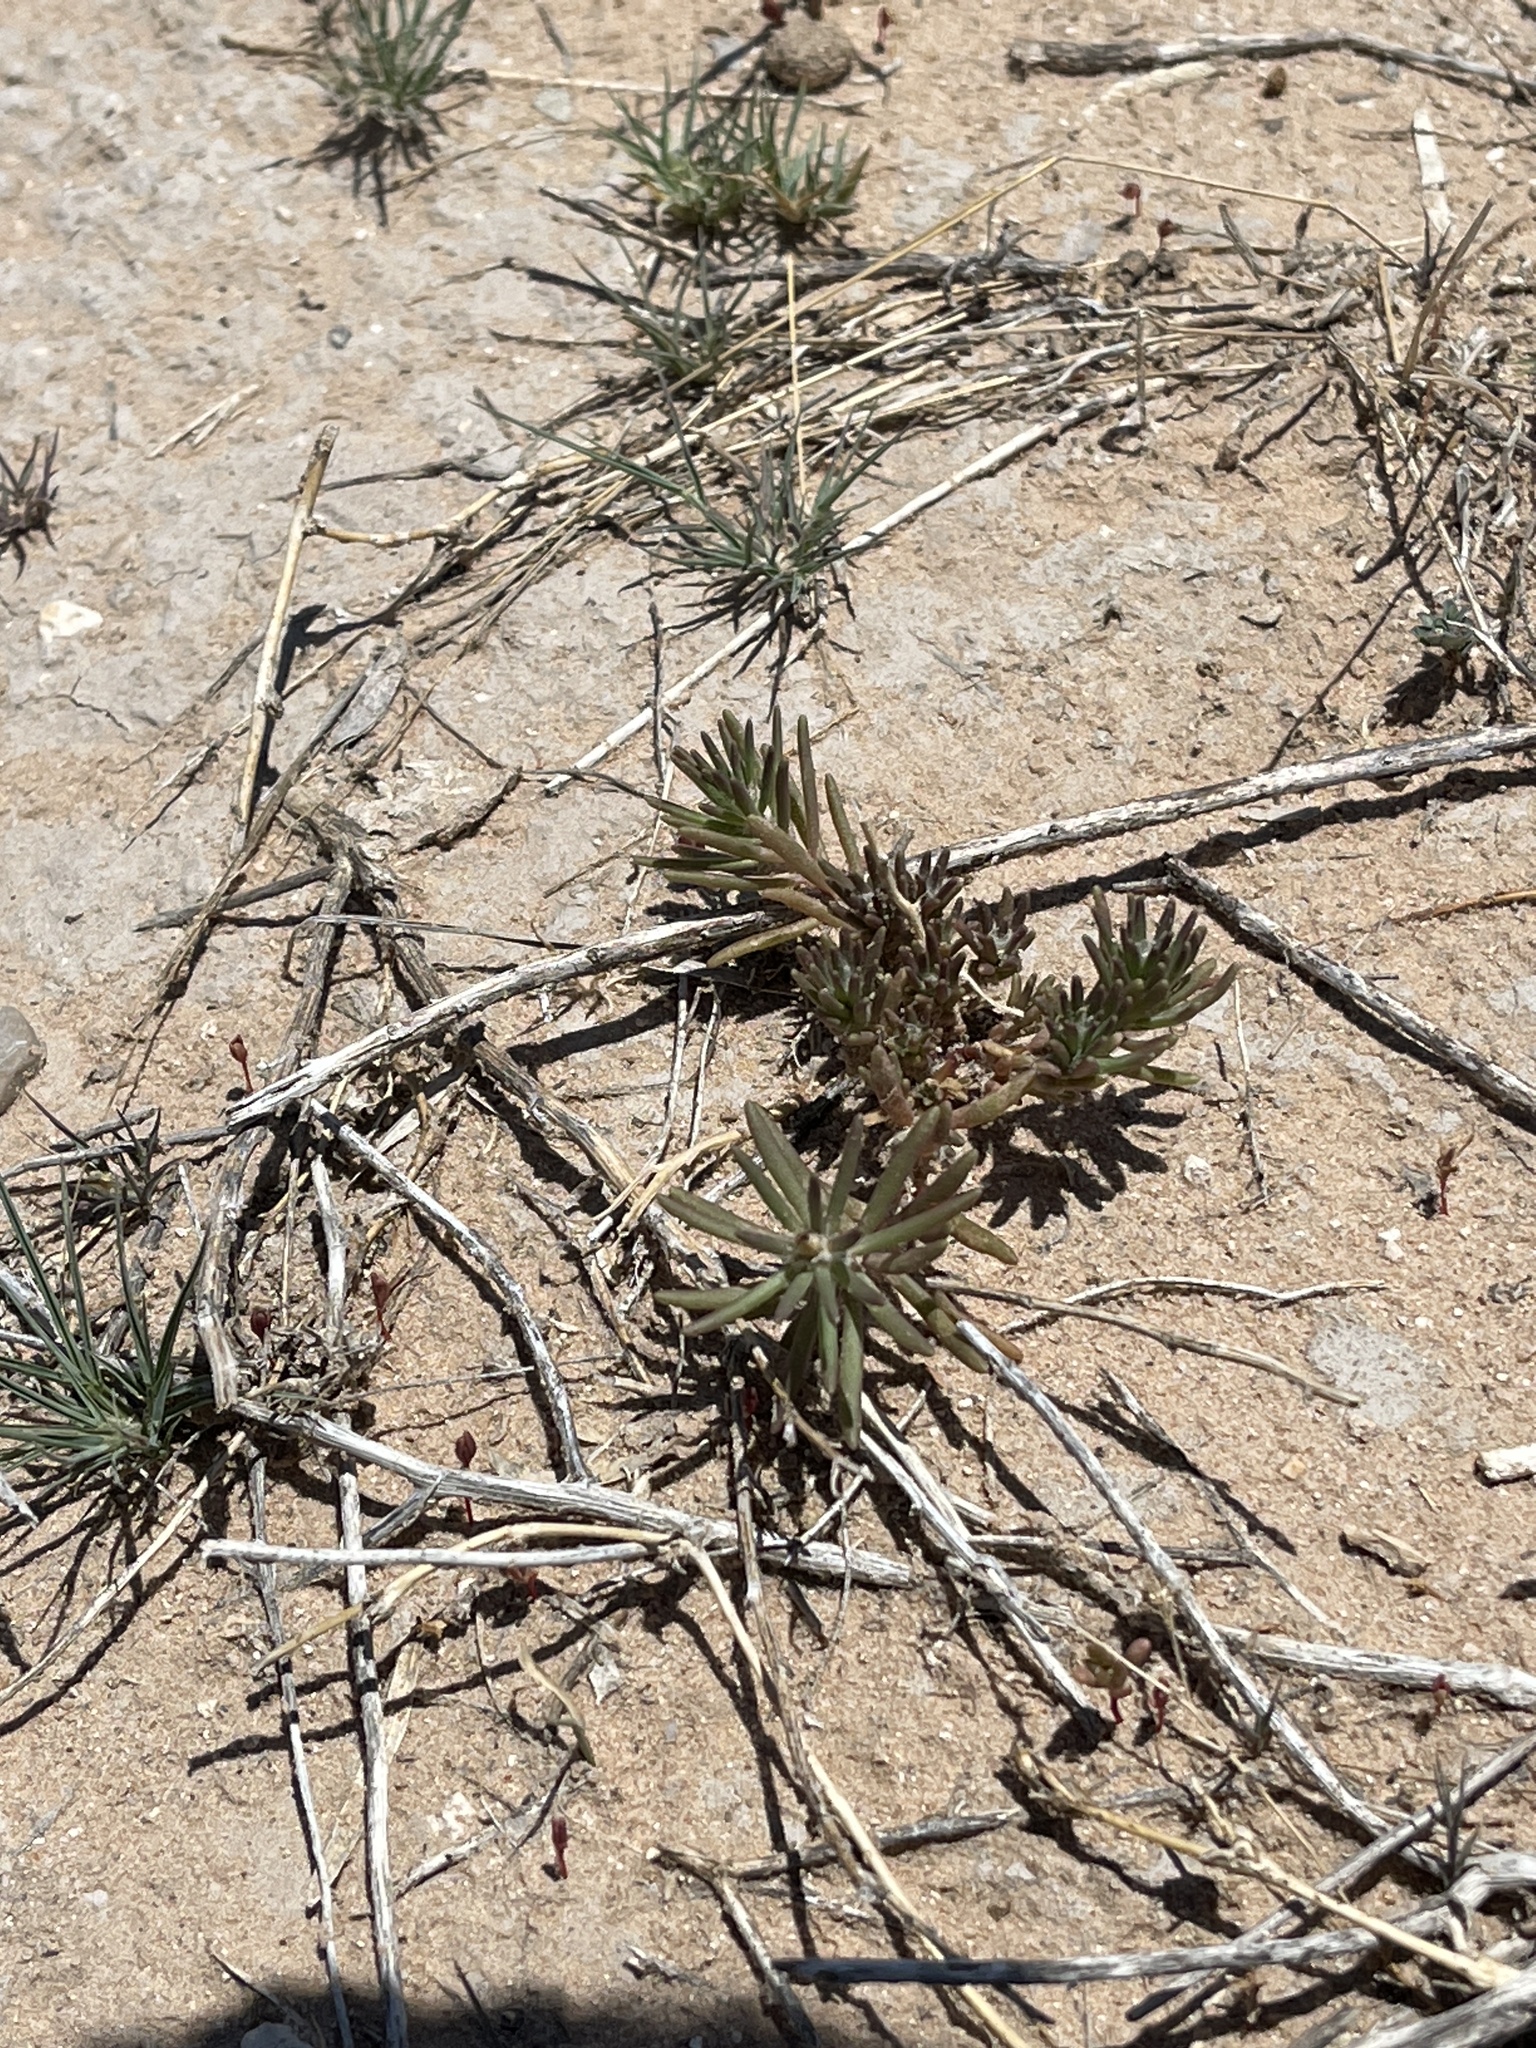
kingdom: Plantae
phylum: Tracheophyta
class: Magnoliopsida
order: Caryophyllales
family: Portulacaceae
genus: Portulaca
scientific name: Portulaca pilosa
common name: Kiss me quick
